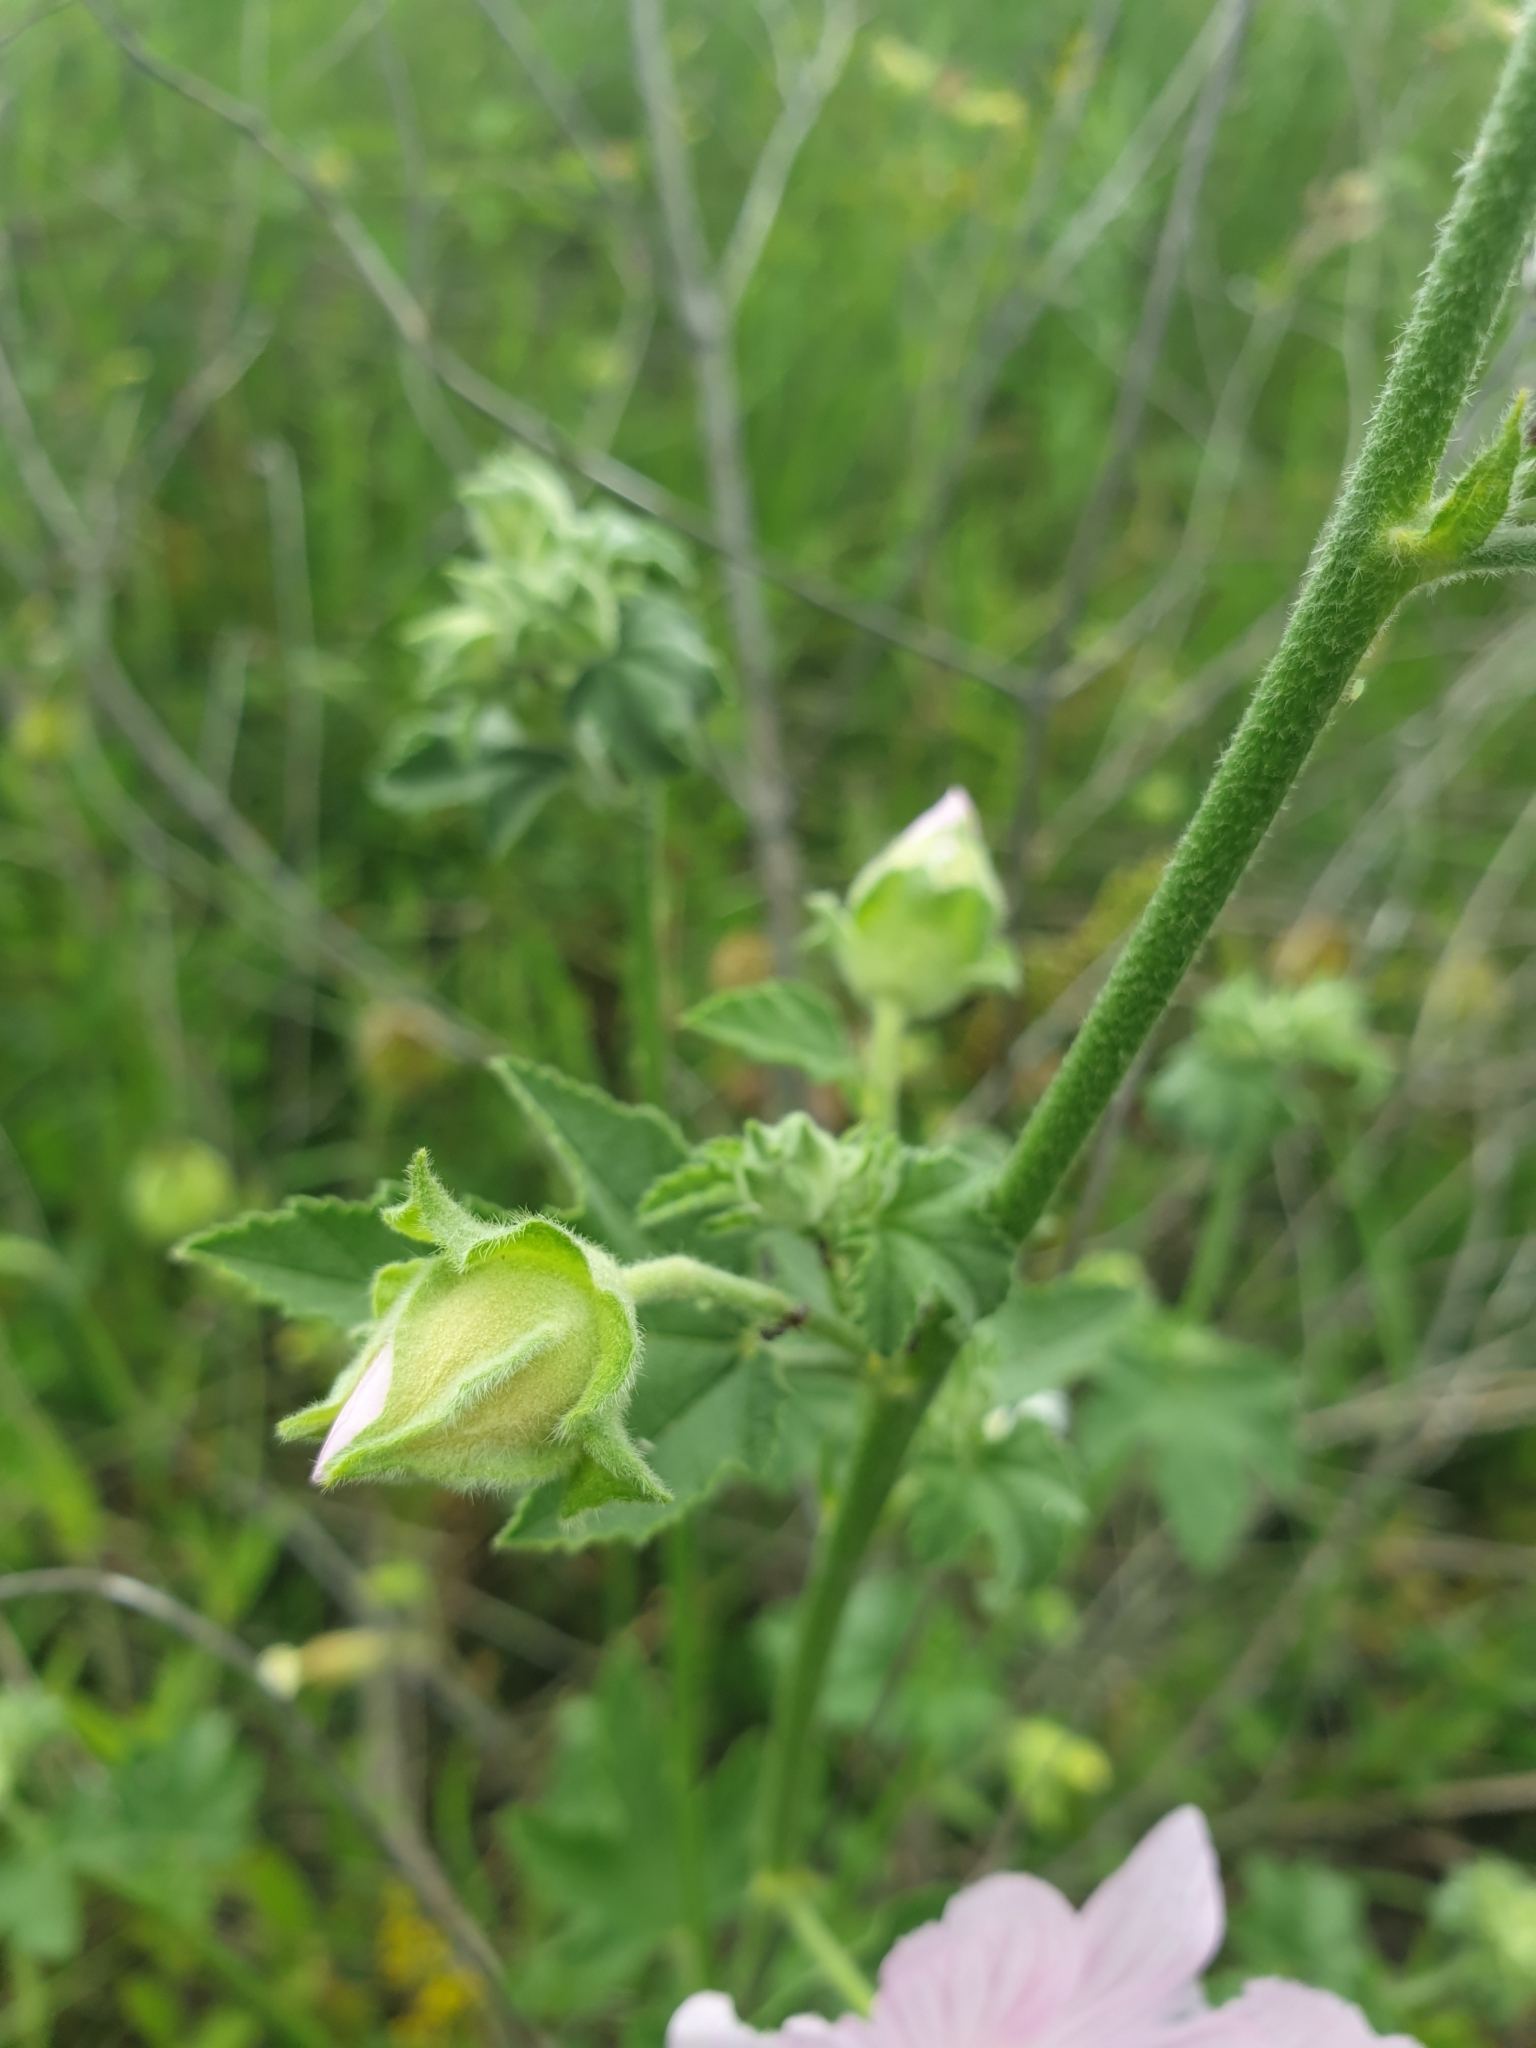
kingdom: Plantae
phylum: Tracheophyta
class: Magnoliopsida
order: Malvales
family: Malvaceae
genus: Malva
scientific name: Malva thuringiaca
